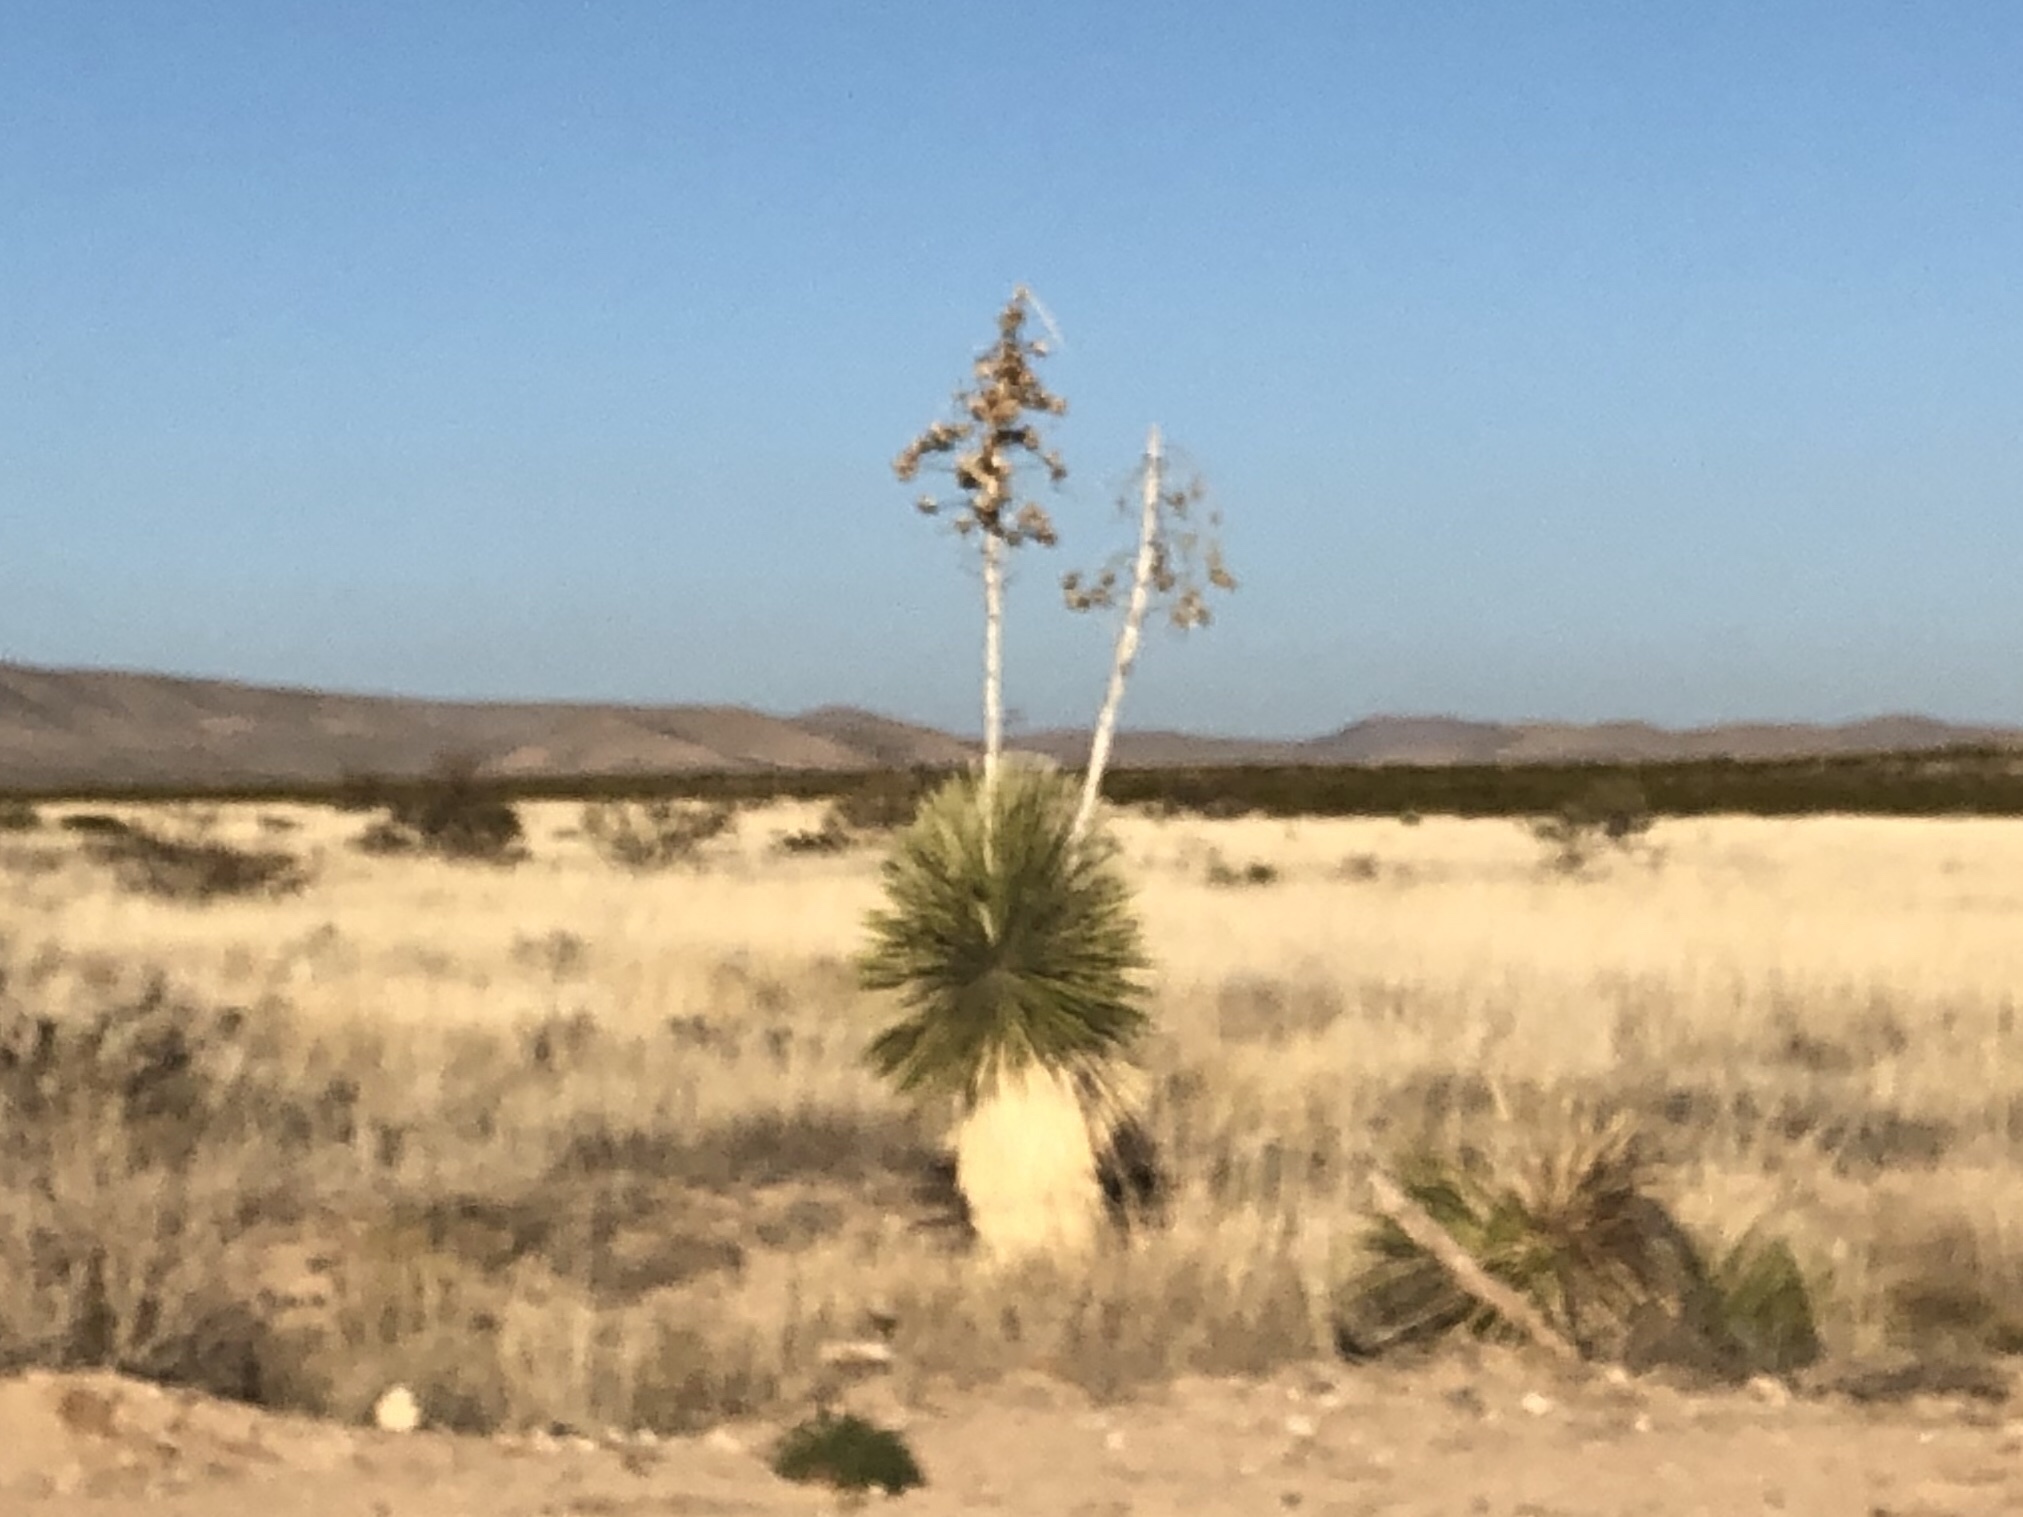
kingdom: Plantae
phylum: Tracheophyta
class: Liliopsida
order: Asparagales
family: Asparagaceae
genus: Yucca
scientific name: Yucca elata
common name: Palmella
